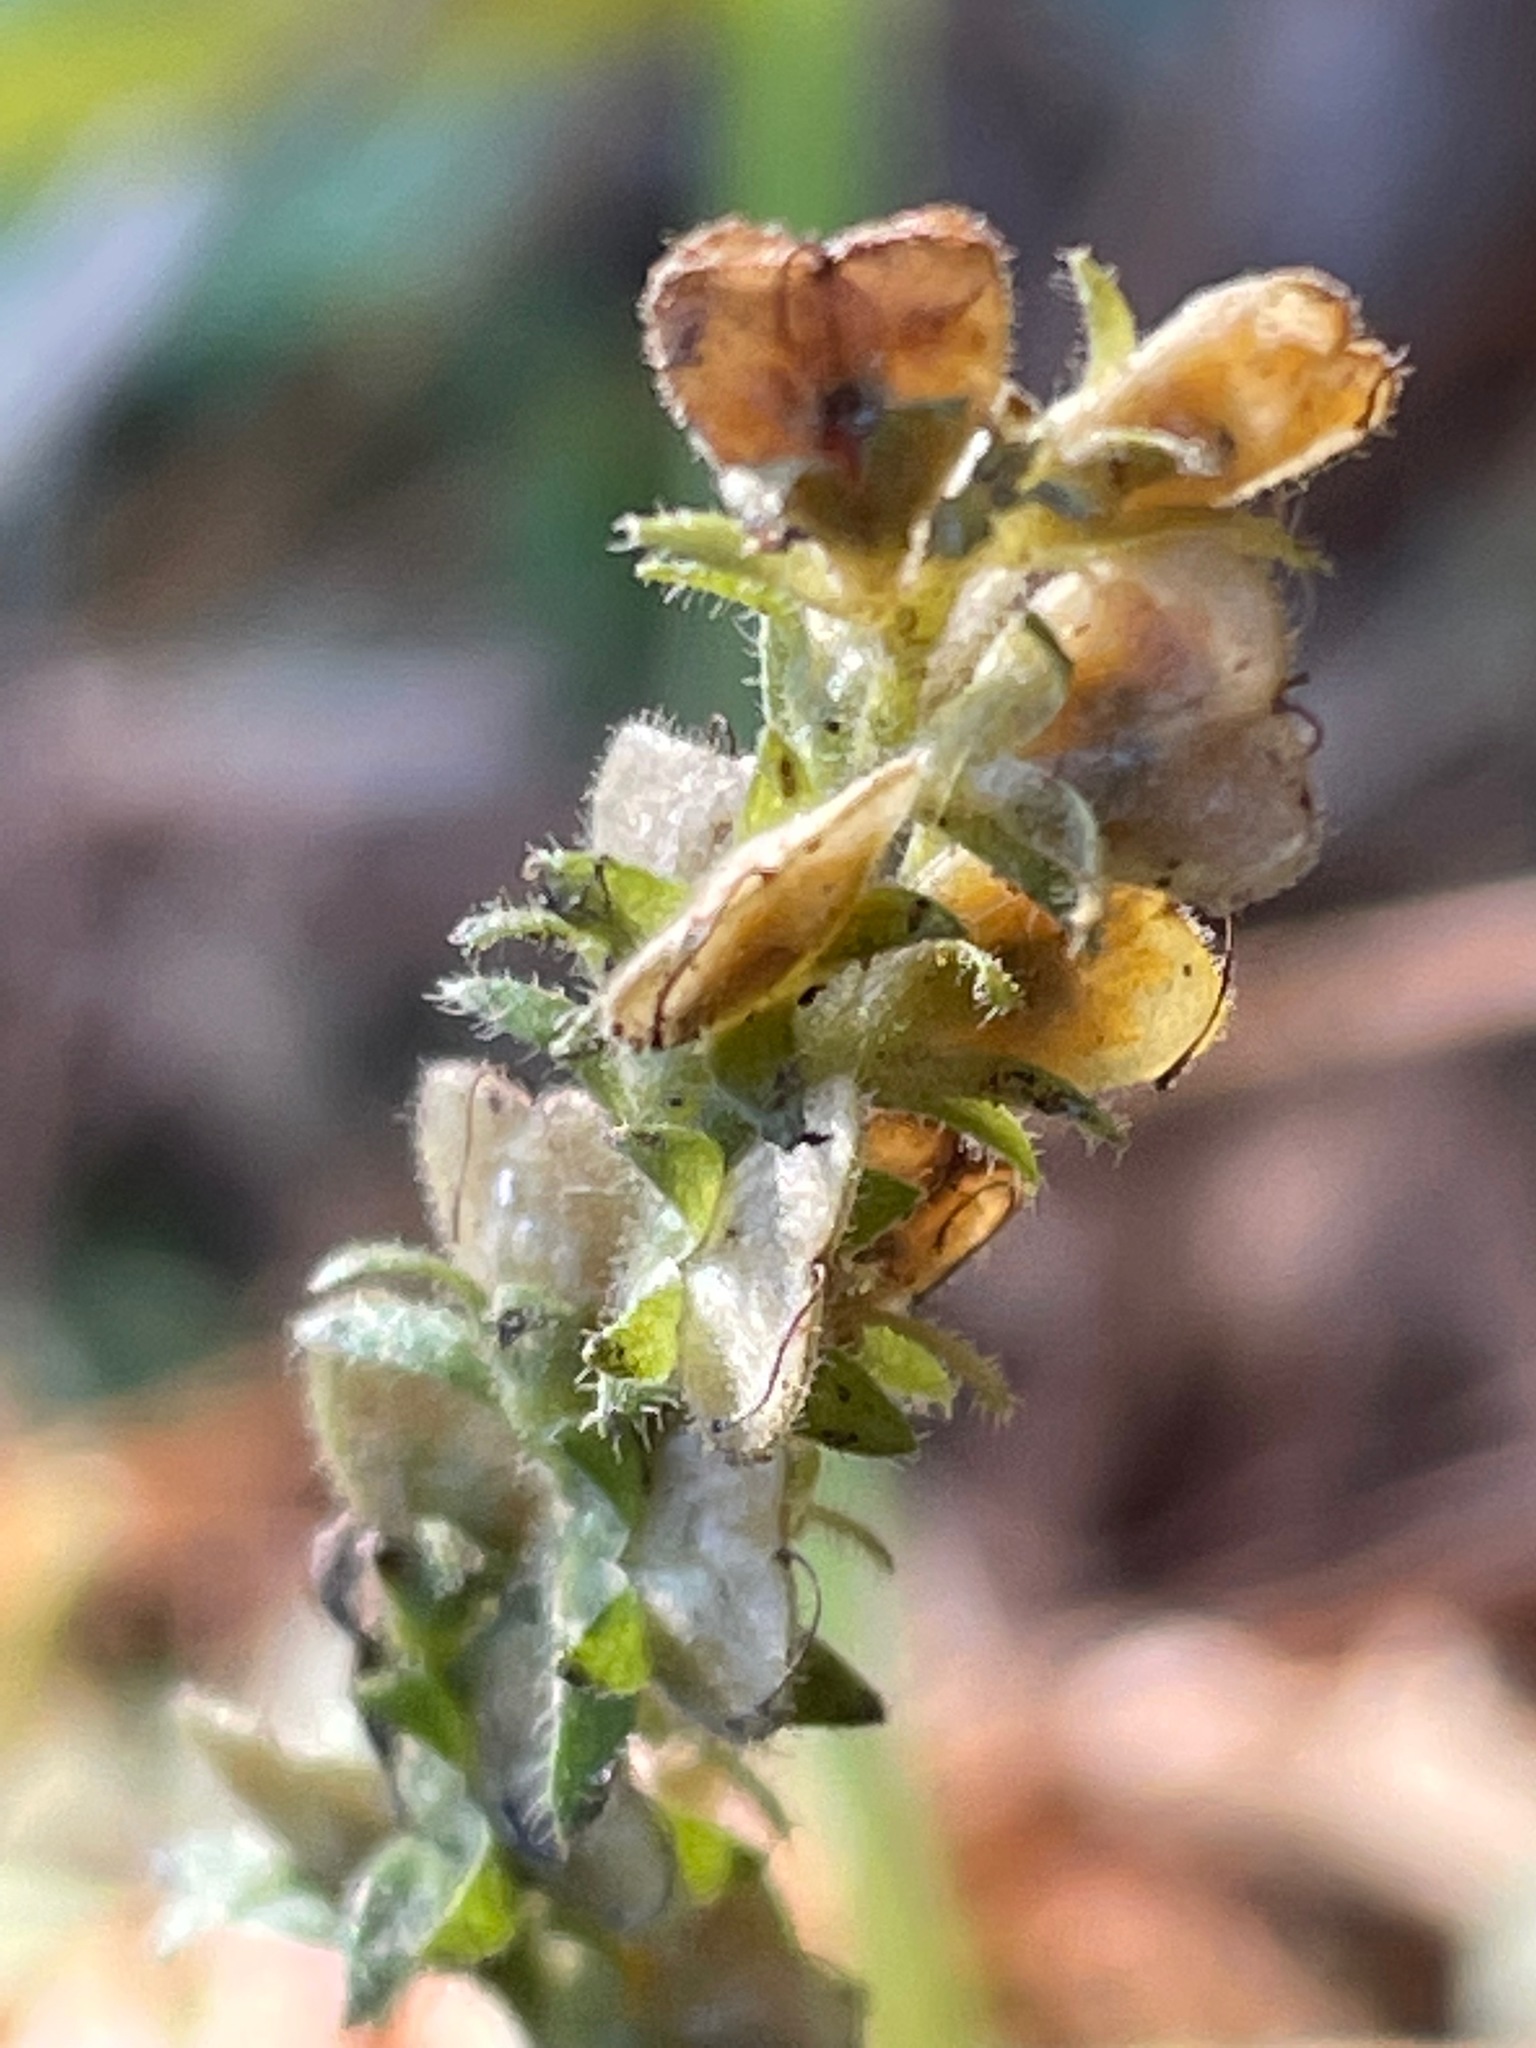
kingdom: Plantae
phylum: Tracheophyta
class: Magnoliopsida
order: Lamiales
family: Plantaginaceae
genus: Veronica
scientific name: Veronica officinalis
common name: Common speedwell
